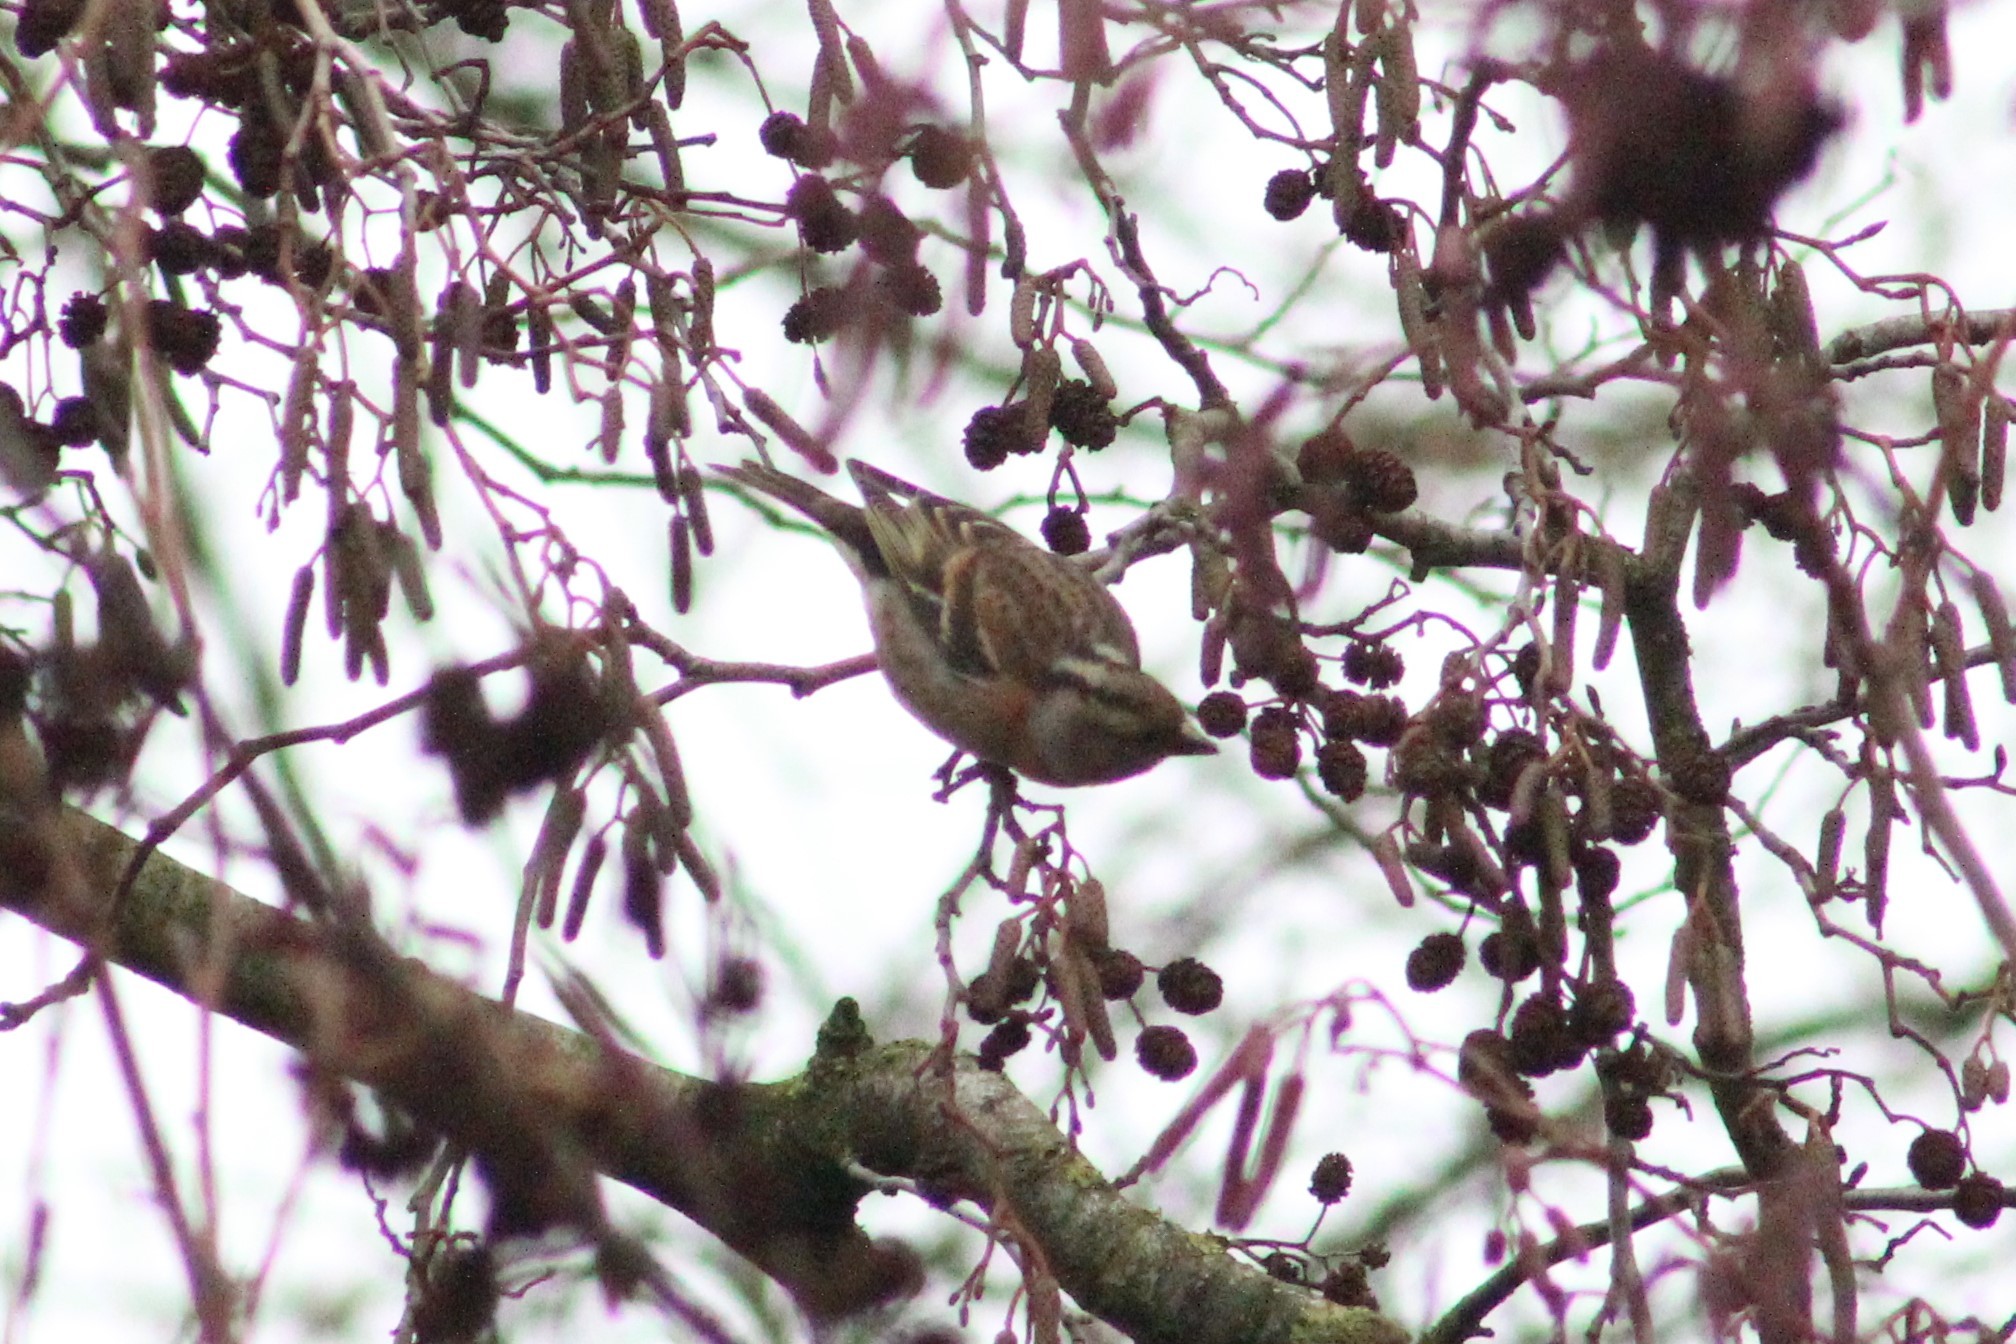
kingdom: Animalia
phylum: Chordata
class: Aves
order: Passeriformes
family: Fringillidae
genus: Fringilla
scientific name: Fringilla montifringilla
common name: Brambling
